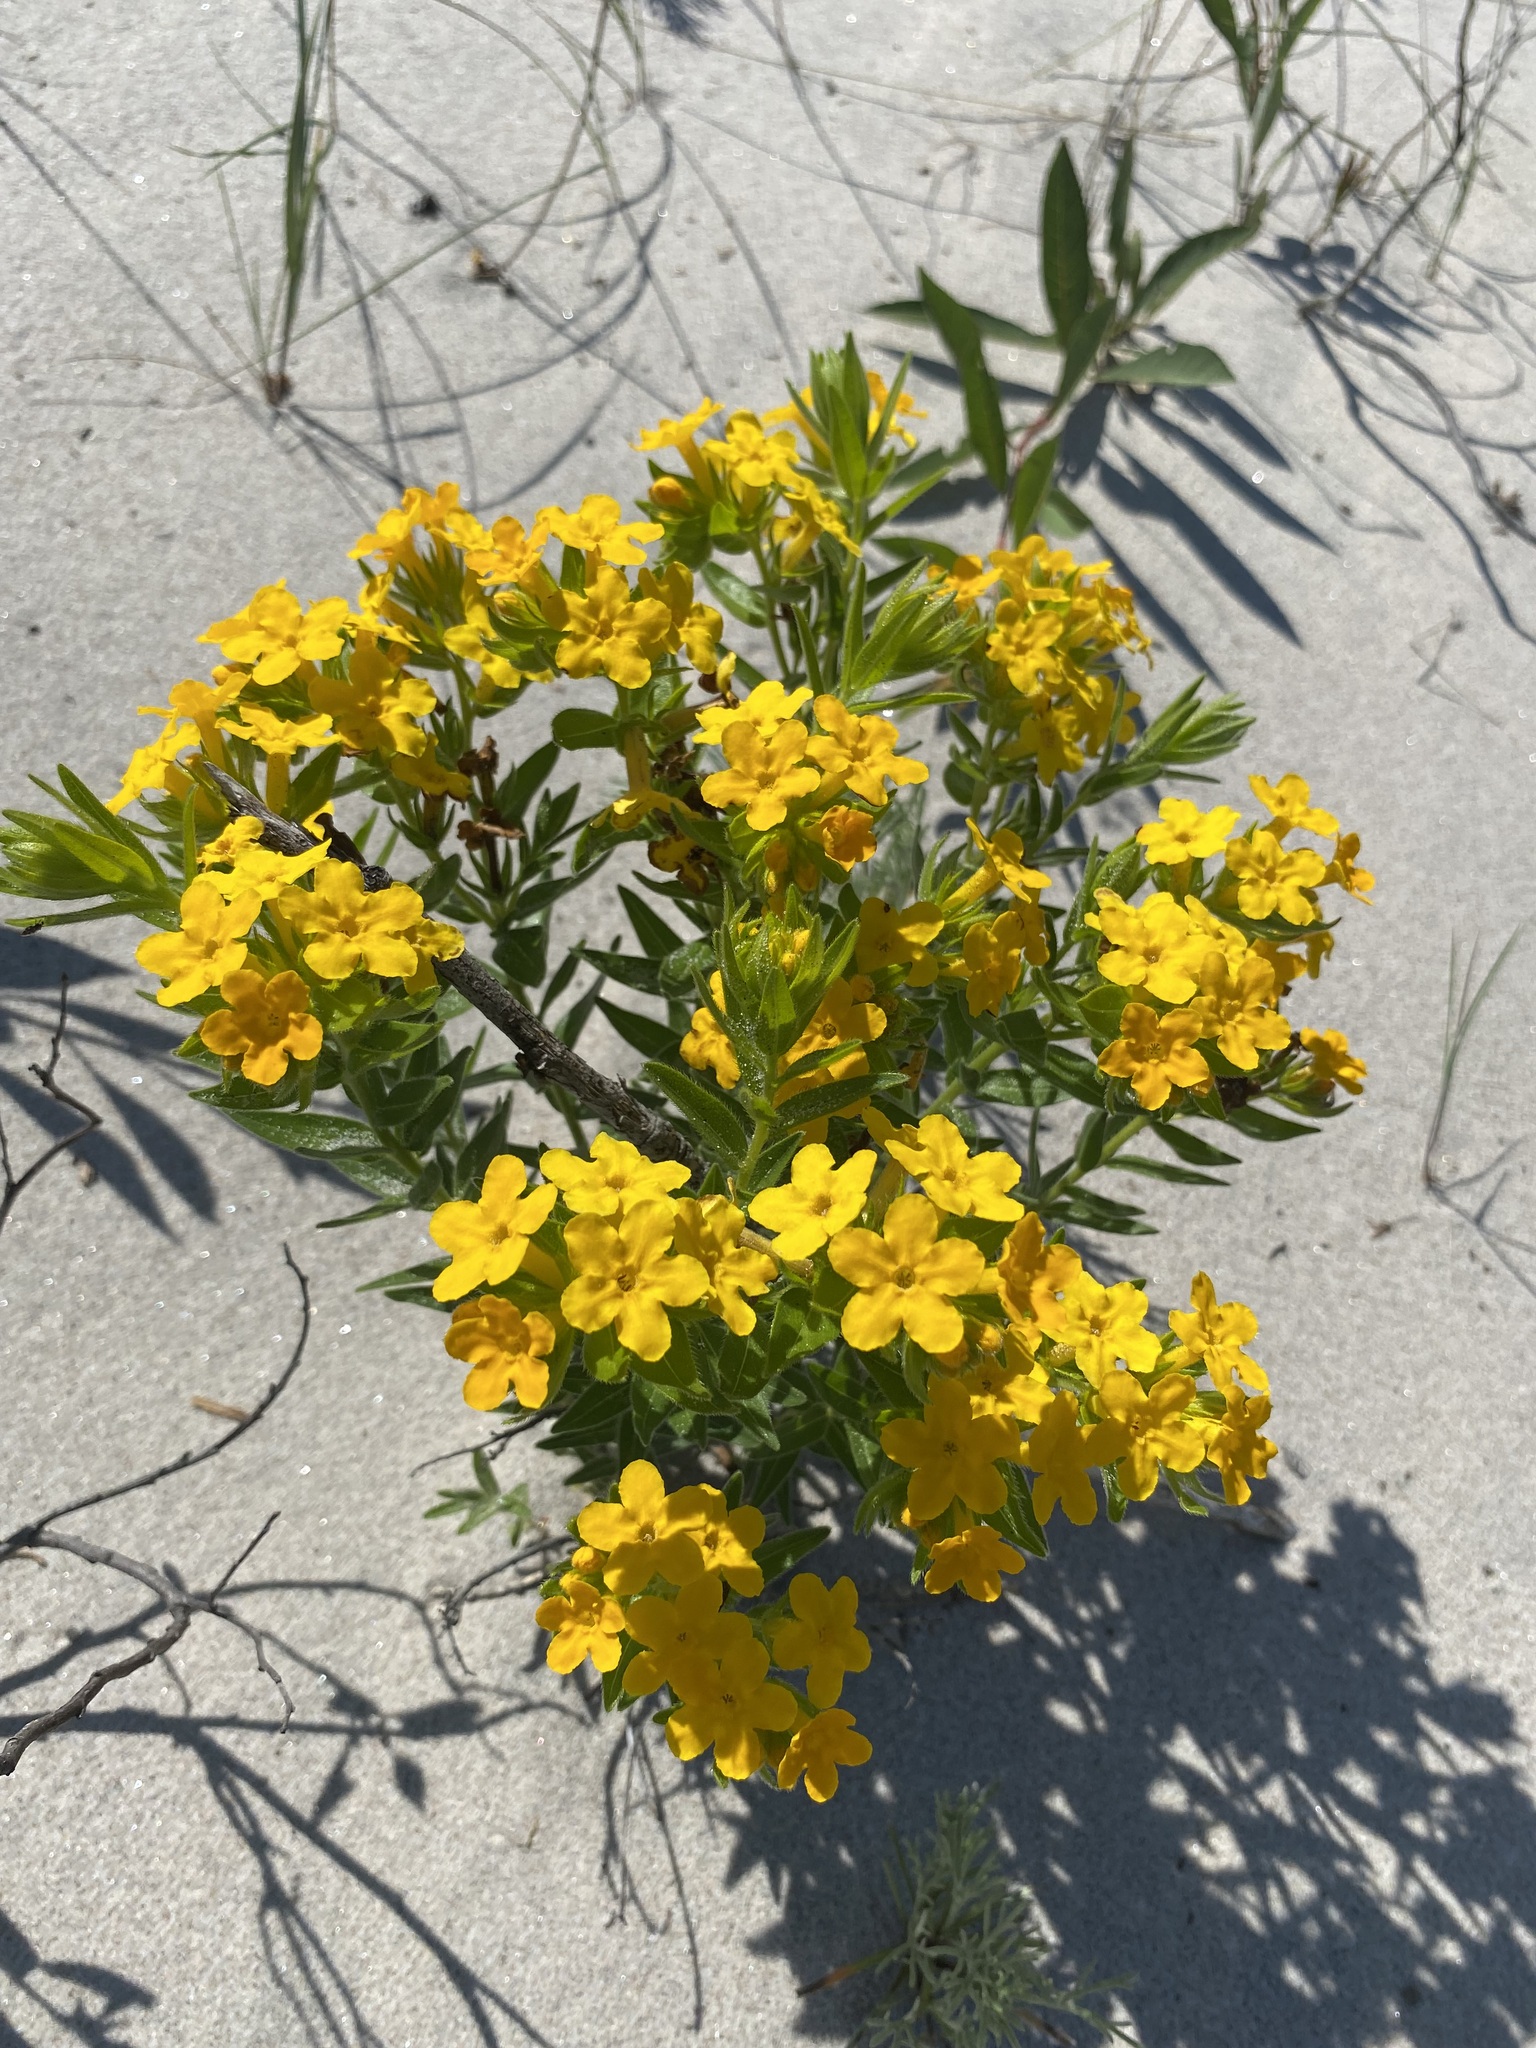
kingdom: Plantae
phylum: Tracheophyta
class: Magnoliopsida
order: Boraginales
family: Boraginaceae
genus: Lithospermum
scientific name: Lithospermum caroliniense
